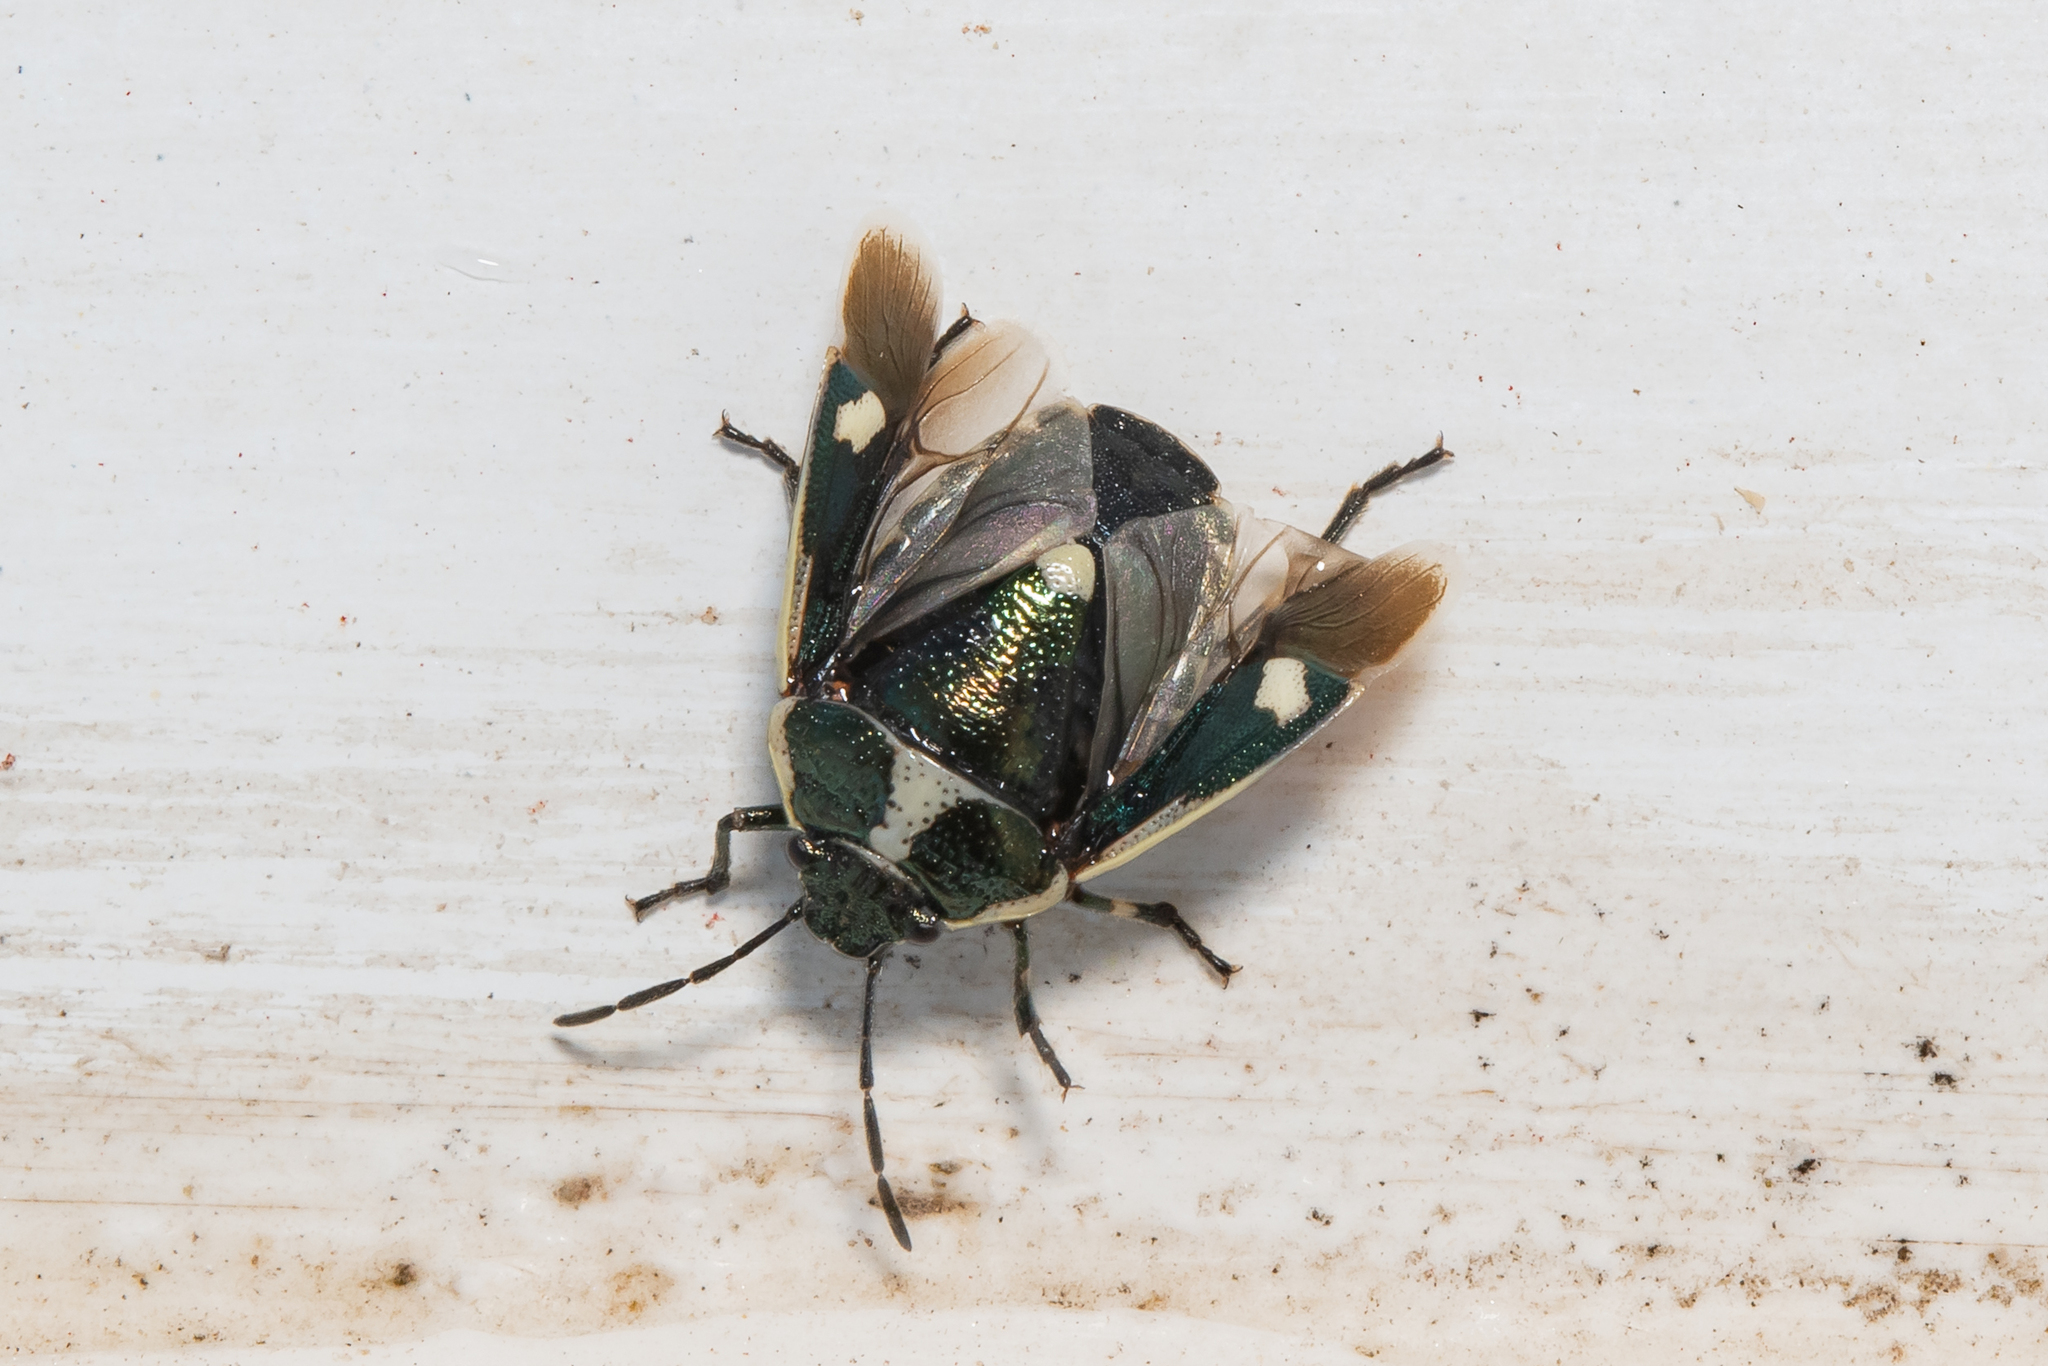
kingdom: Animalia
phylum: Arthropoda
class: Insecta
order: Hemiptera
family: Pentatomidae
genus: Eurydema
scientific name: Eurydema oleracea
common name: Cabbage bug
